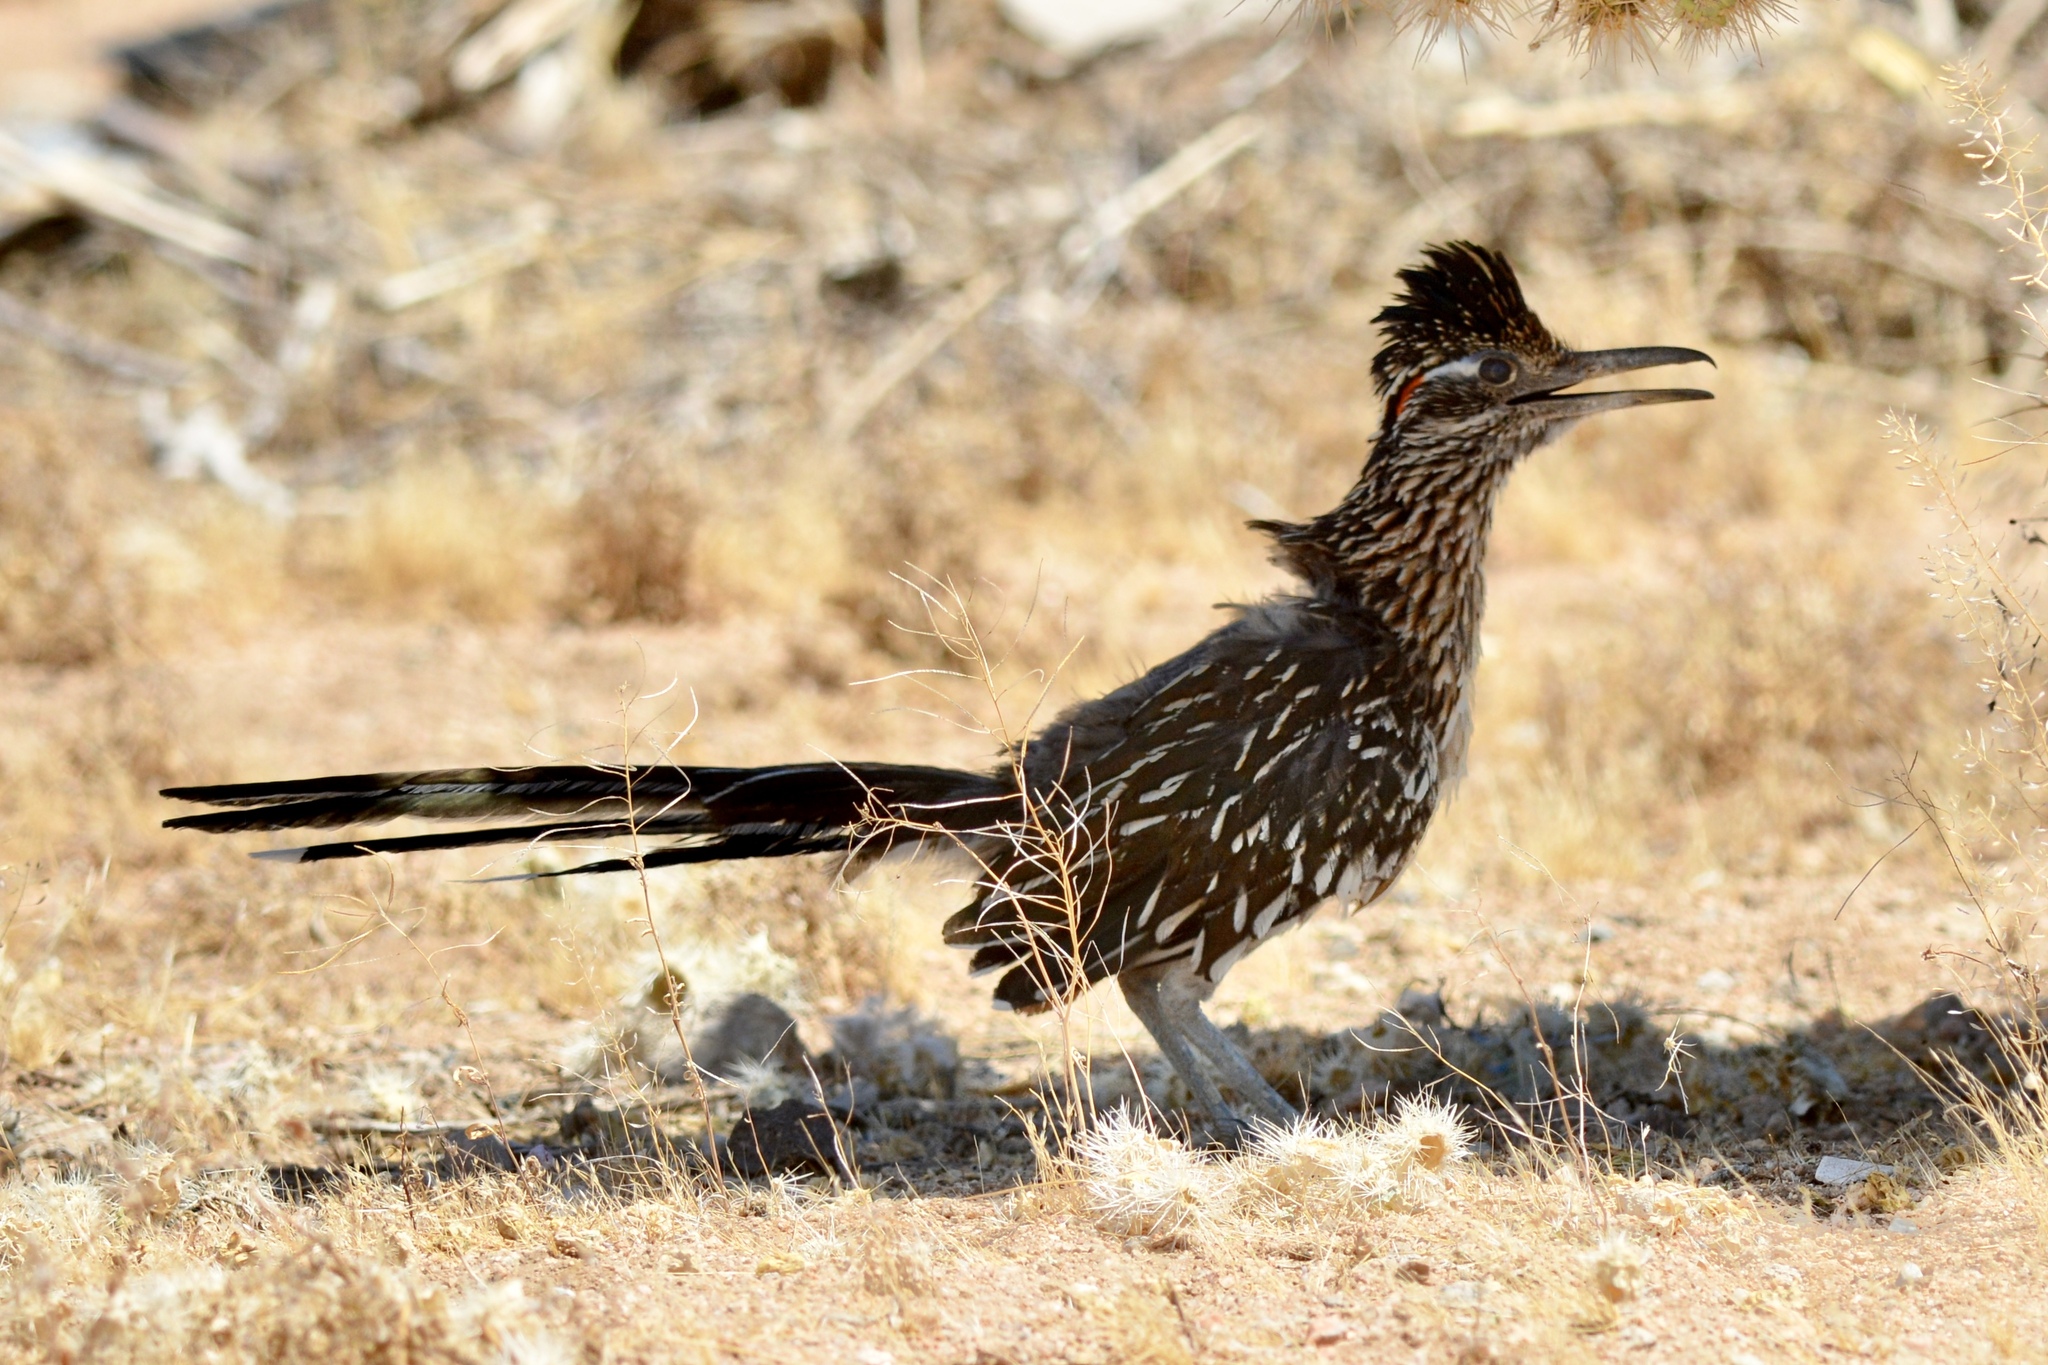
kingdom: Animalia
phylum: Chordata
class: Aves
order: Cuculiformes
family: Cuculidae
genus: Geococcyx
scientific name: Geococcyx californianus
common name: Greater roadrunner
